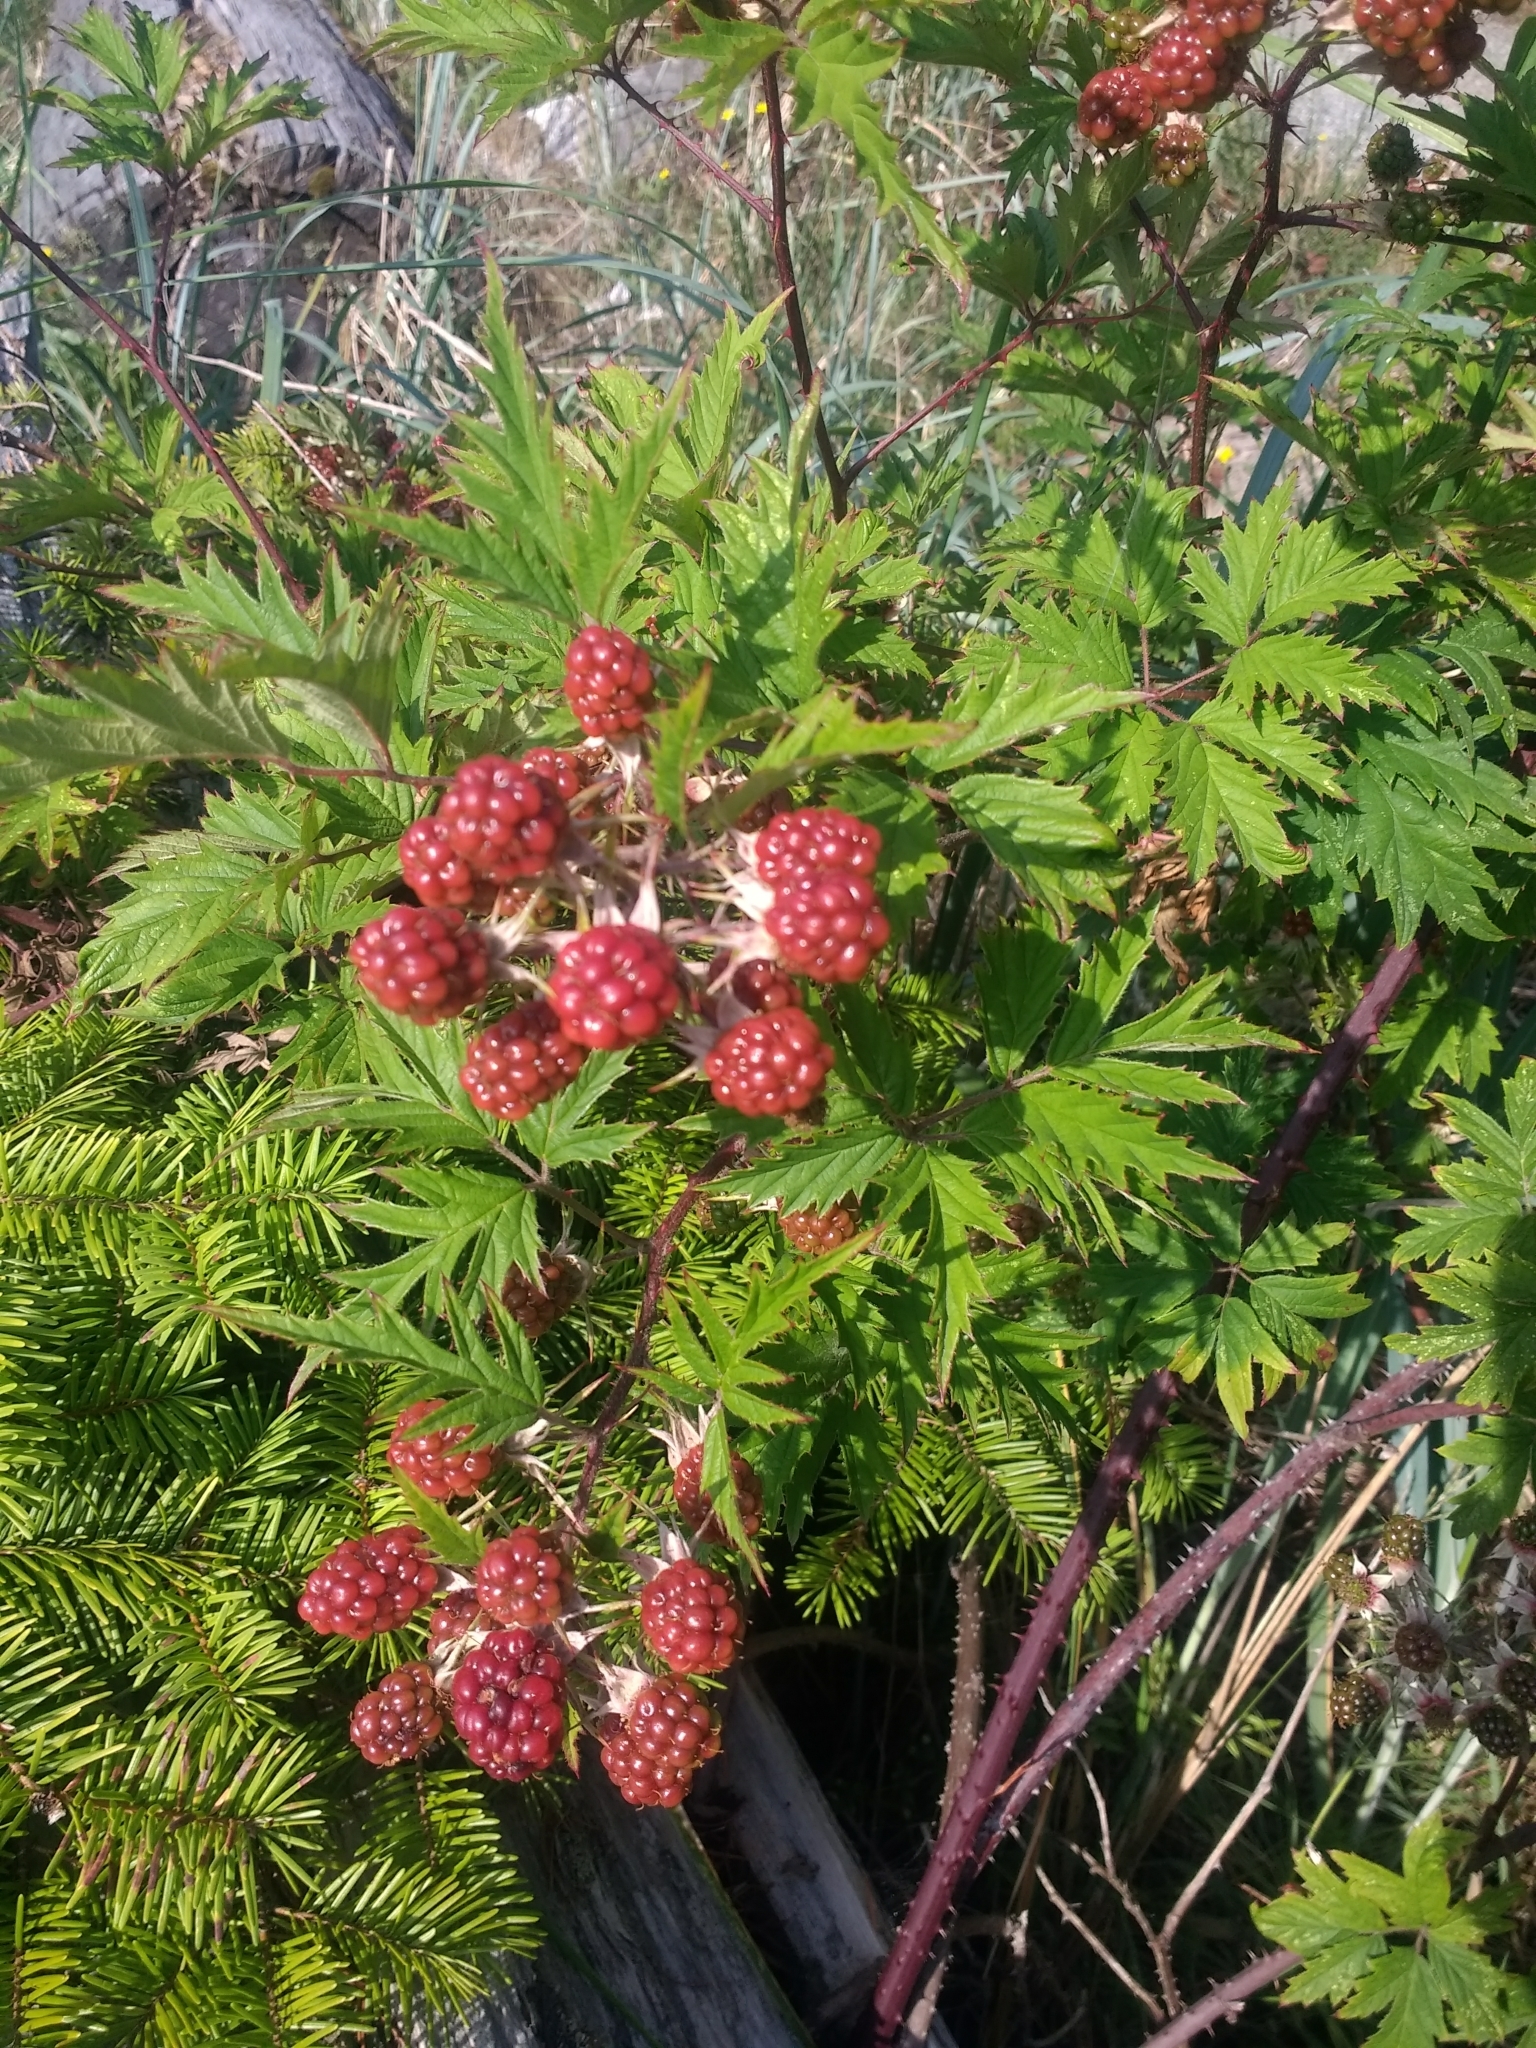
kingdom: Plantae
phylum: Tracheophyta
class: Magnoliopsida
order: Rosales
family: Rosaceae
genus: Rubus
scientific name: Rubus laciniatus
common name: Evergreen blackberry
